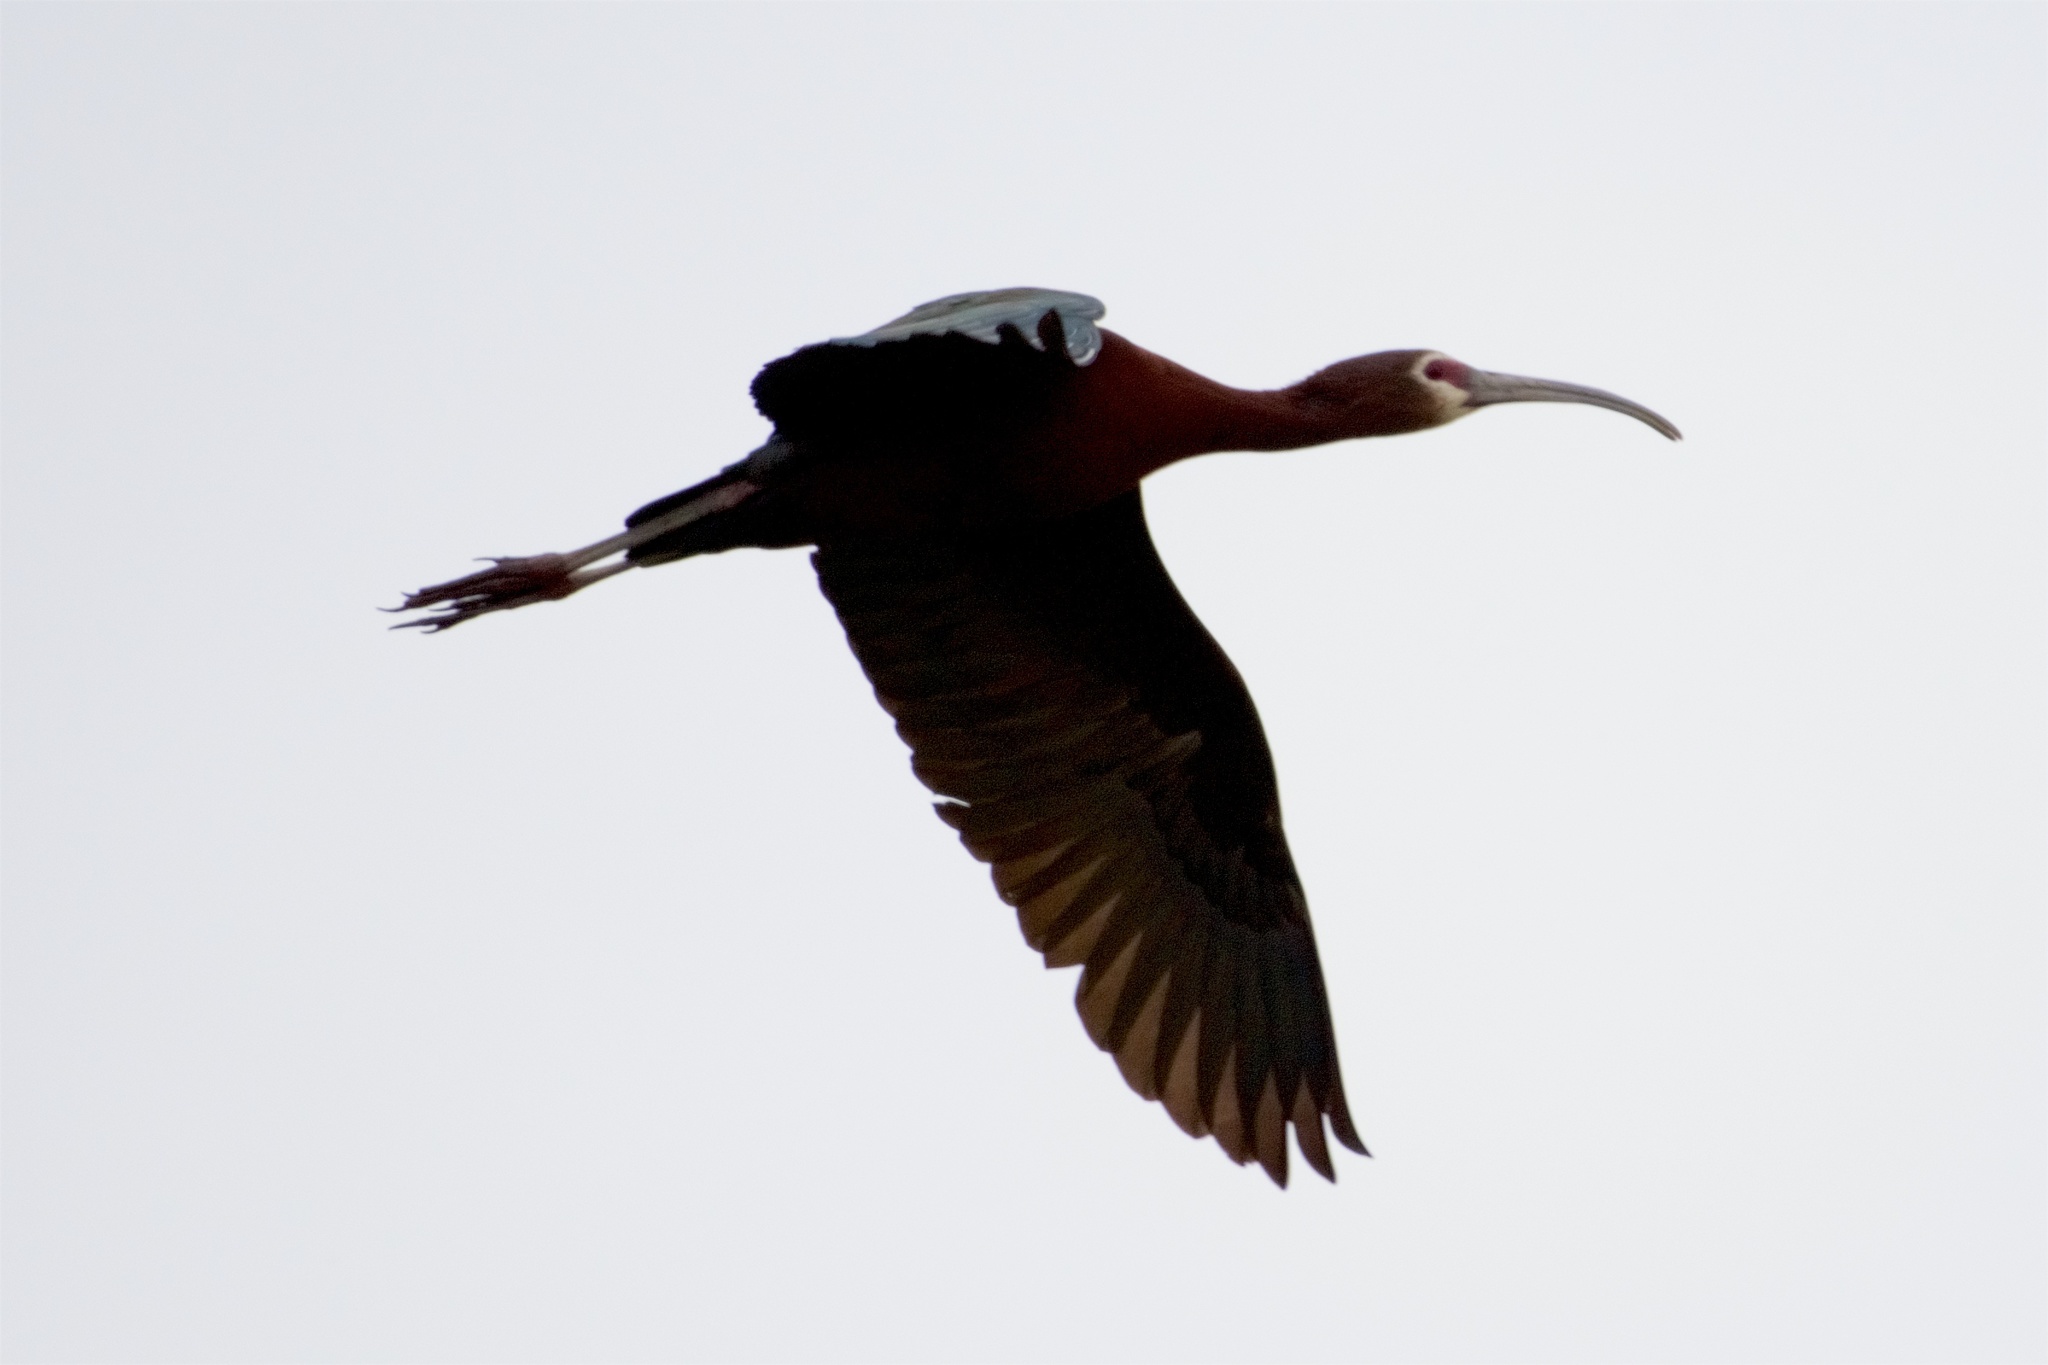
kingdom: Animalia
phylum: Chordata
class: Aves
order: Pelecaniformes
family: Threskiornithidae
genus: Plegadis
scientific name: Plegadis chihi
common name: White-faced ibis
